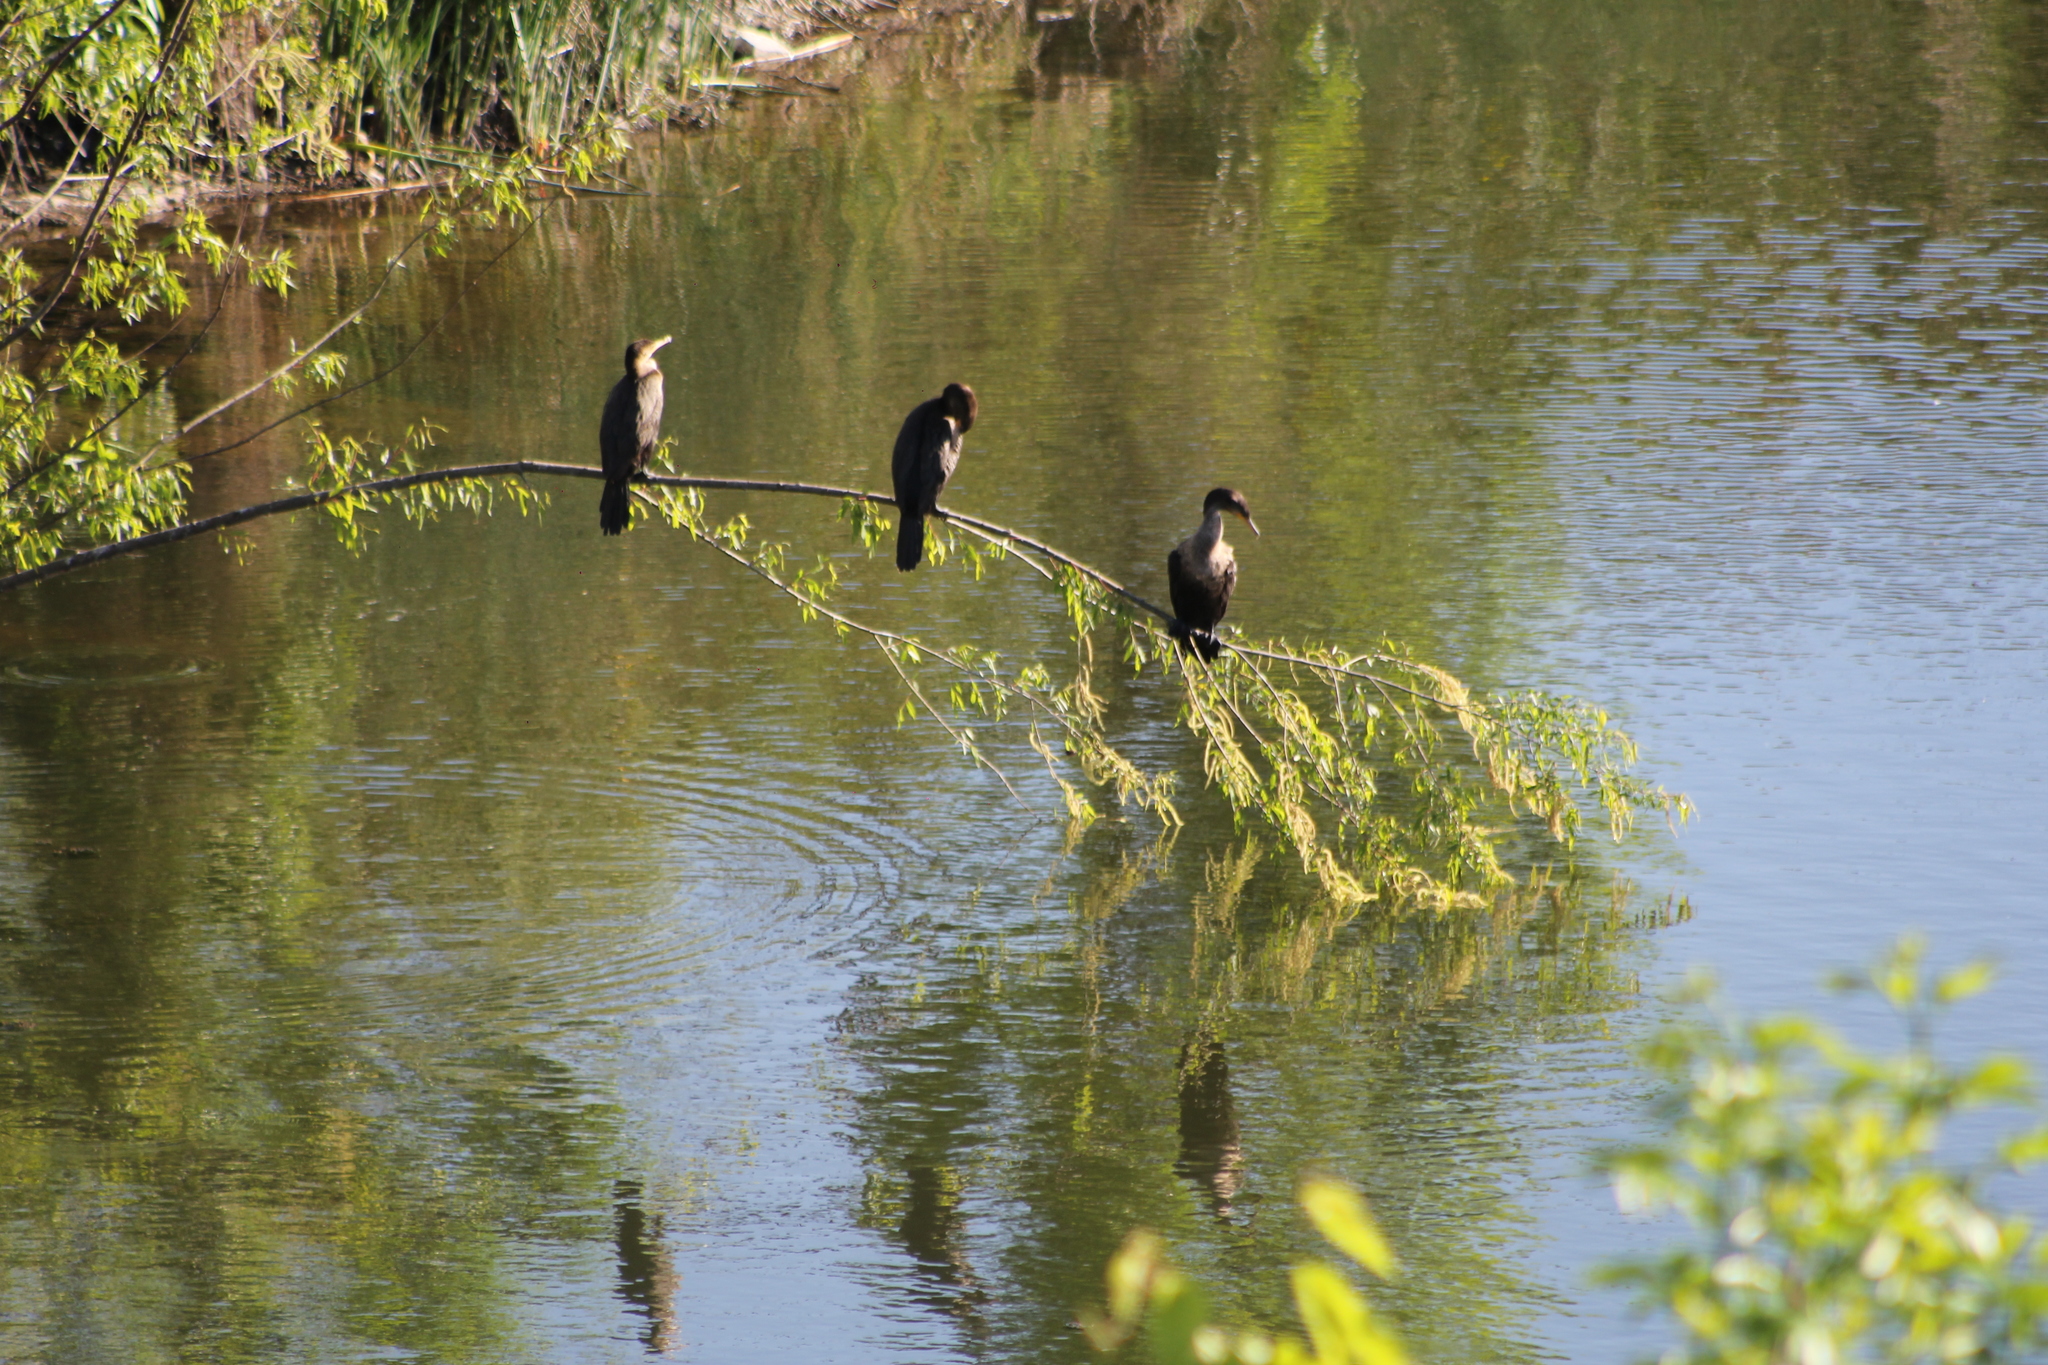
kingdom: Animalia
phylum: Chordata
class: Aves
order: Suliformes
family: Phalacrocoracidae
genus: Phalacrocorax
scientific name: Phalacrocorax brasilianus
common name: Neotropic cormorant
